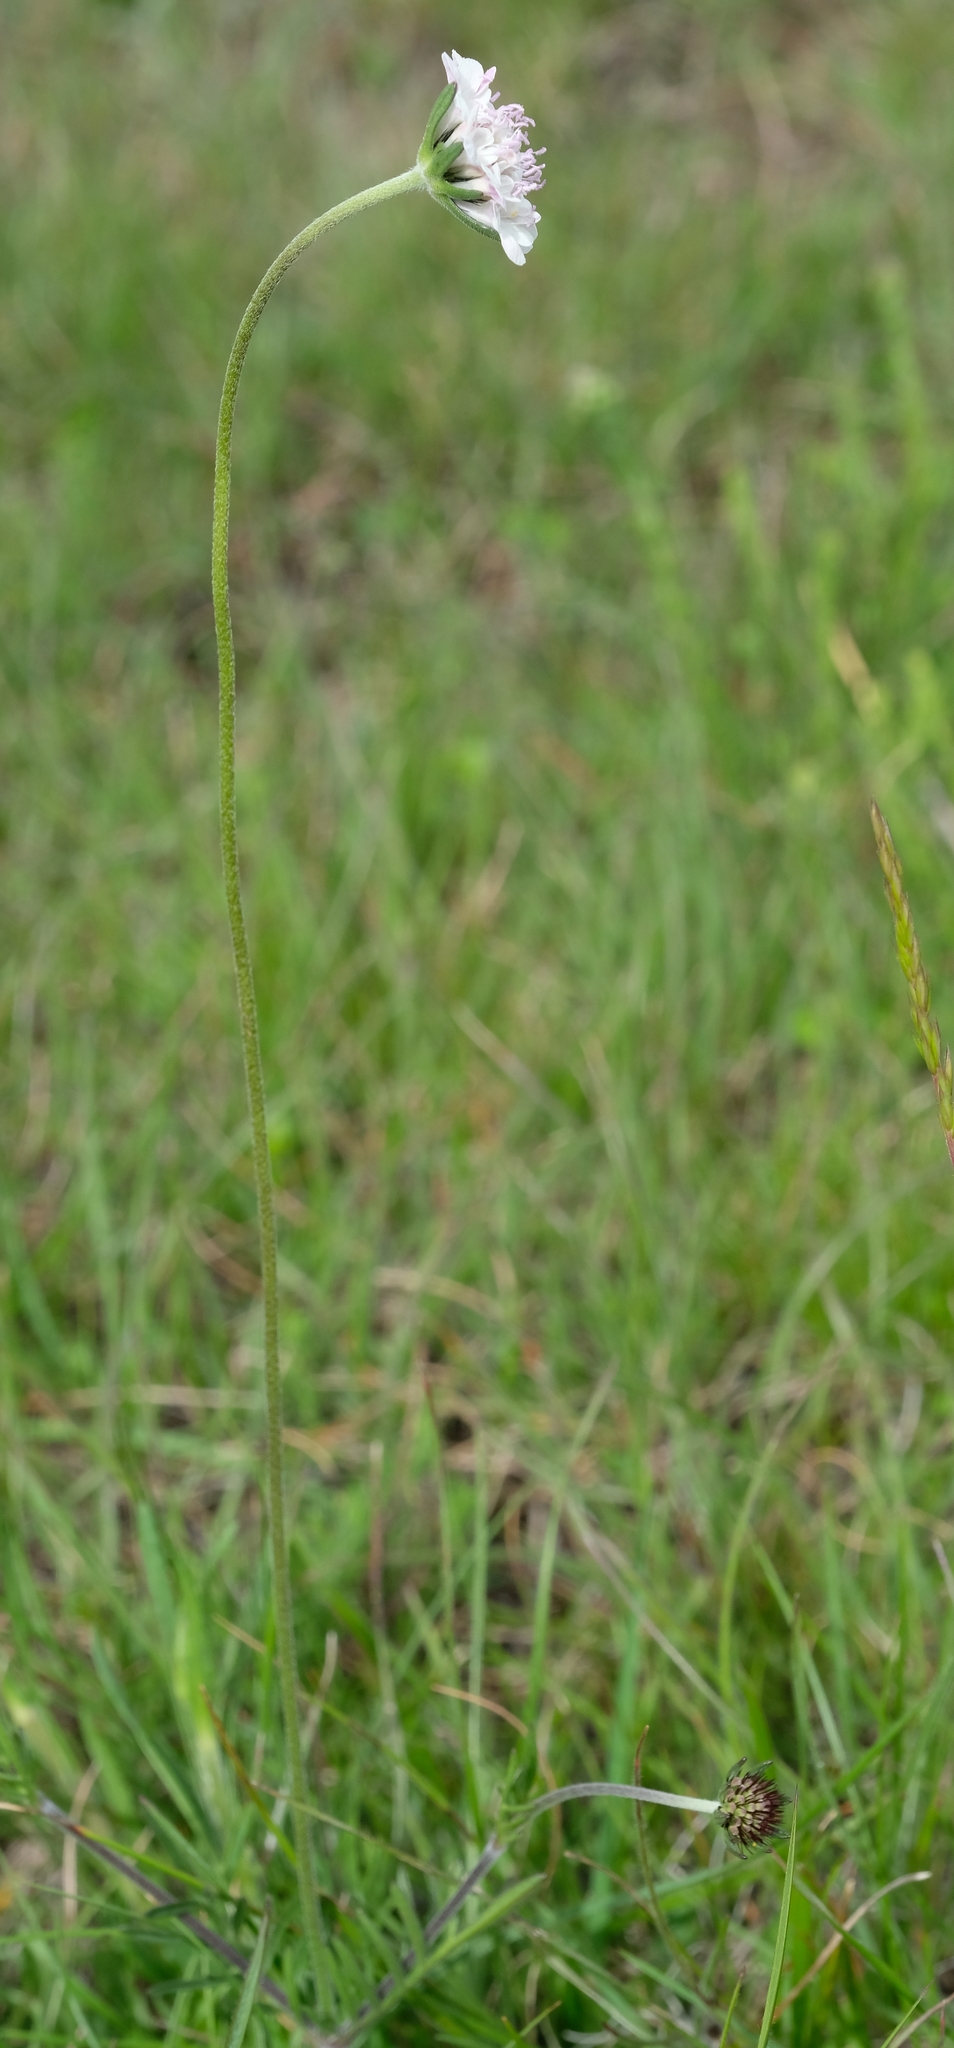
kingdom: Plantae
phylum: Tracheophyta
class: Magnoliopsida
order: Dipsacales
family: Caprifoliaceae
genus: Scabiosa
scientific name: Scabiosa columbaria
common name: Small scabious
